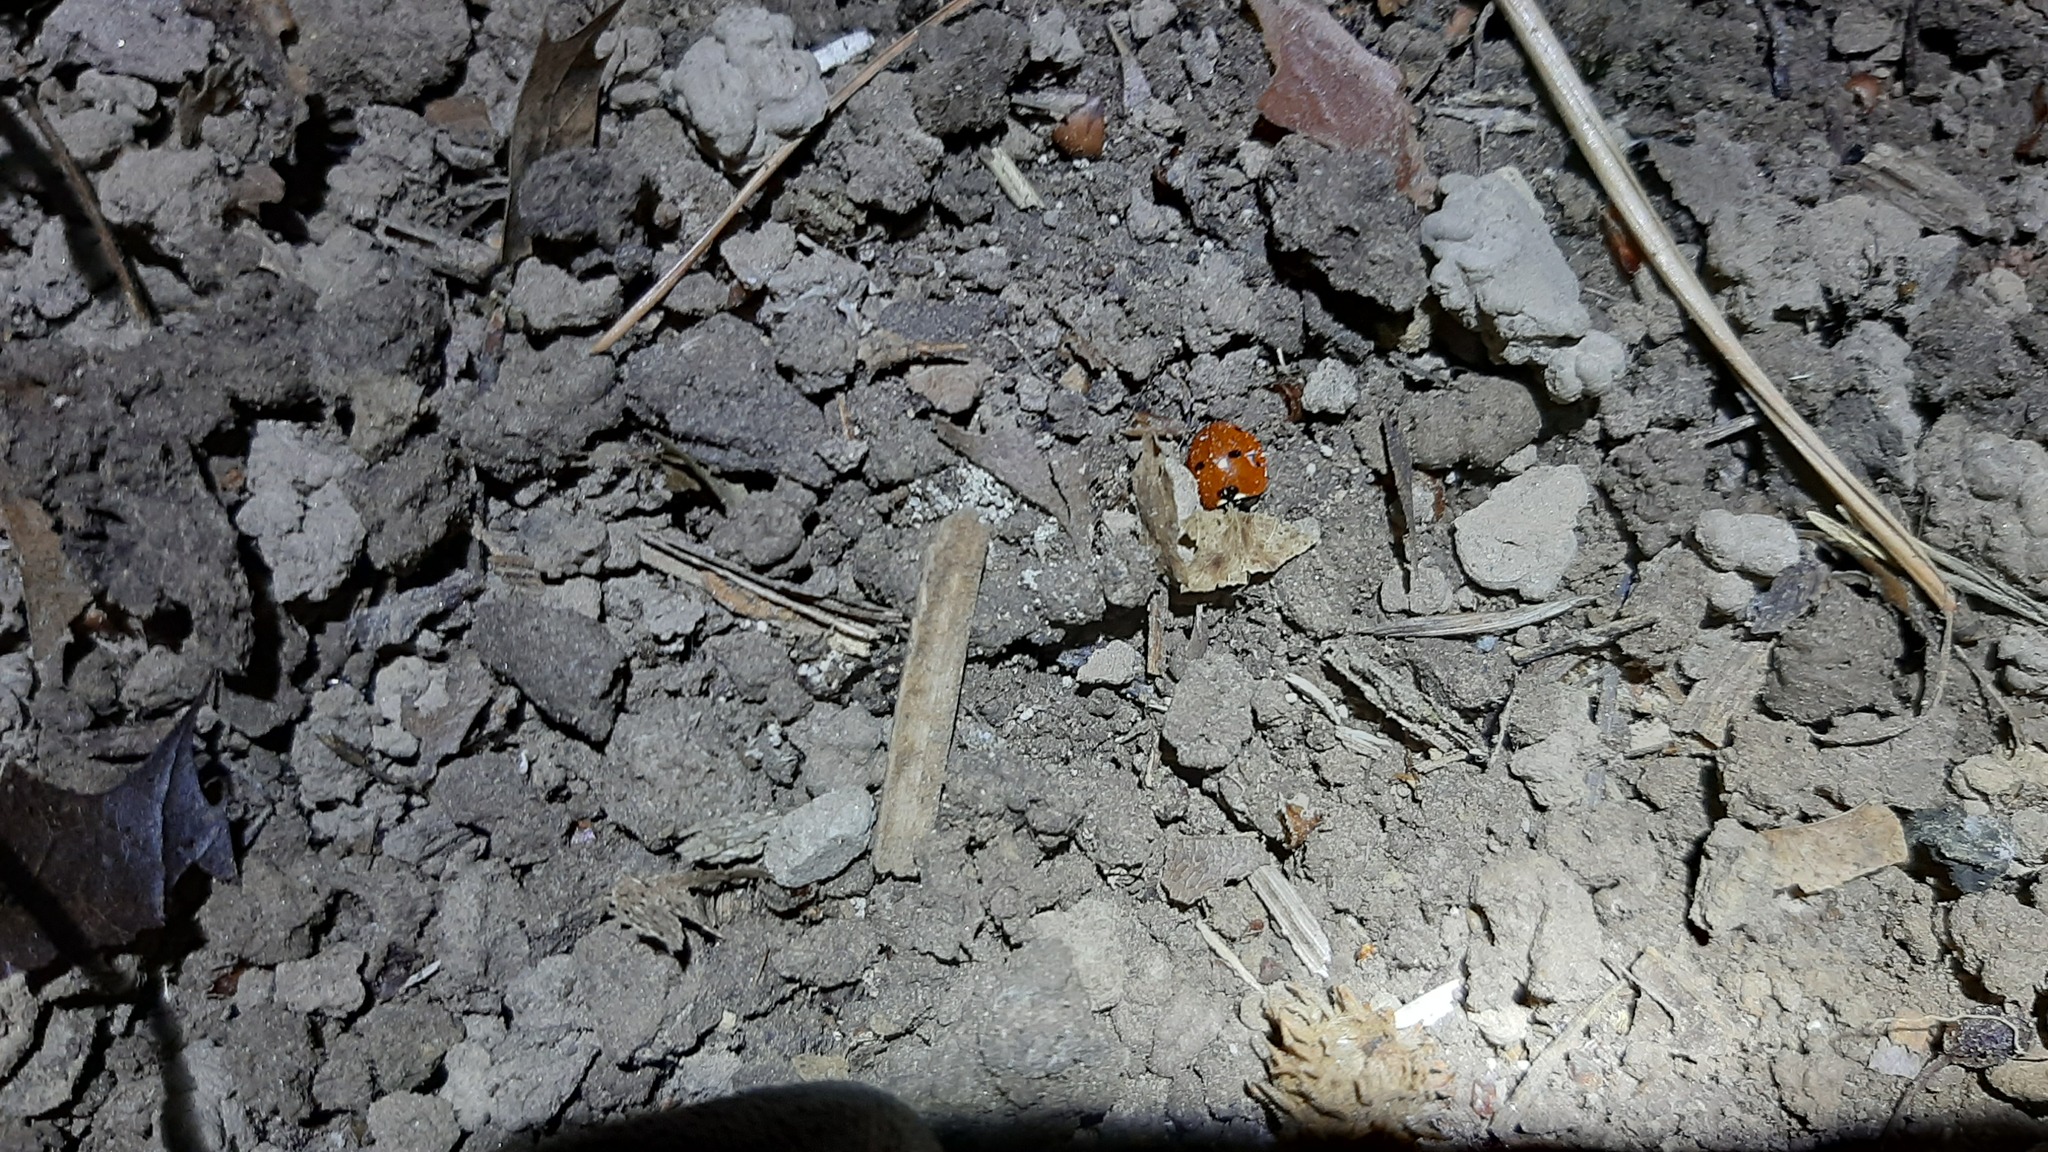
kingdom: Animalia
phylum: Arthropoda
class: Insecta
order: Coleoptera
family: Coccinellidae
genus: Coccinella
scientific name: Coccinella septempunctata
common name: Sevenspotted lady beetle
